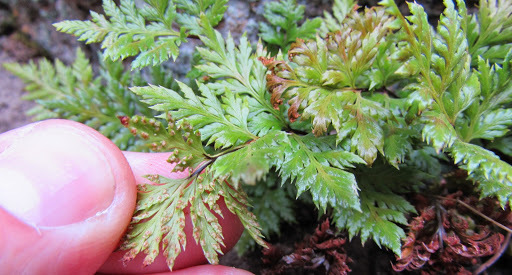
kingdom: Plantae
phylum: Tracheophyta
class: Polypodiopsida
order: Polypodiales
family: Pteridaceae
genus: Aspidotis
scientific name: Aspidotis californica
